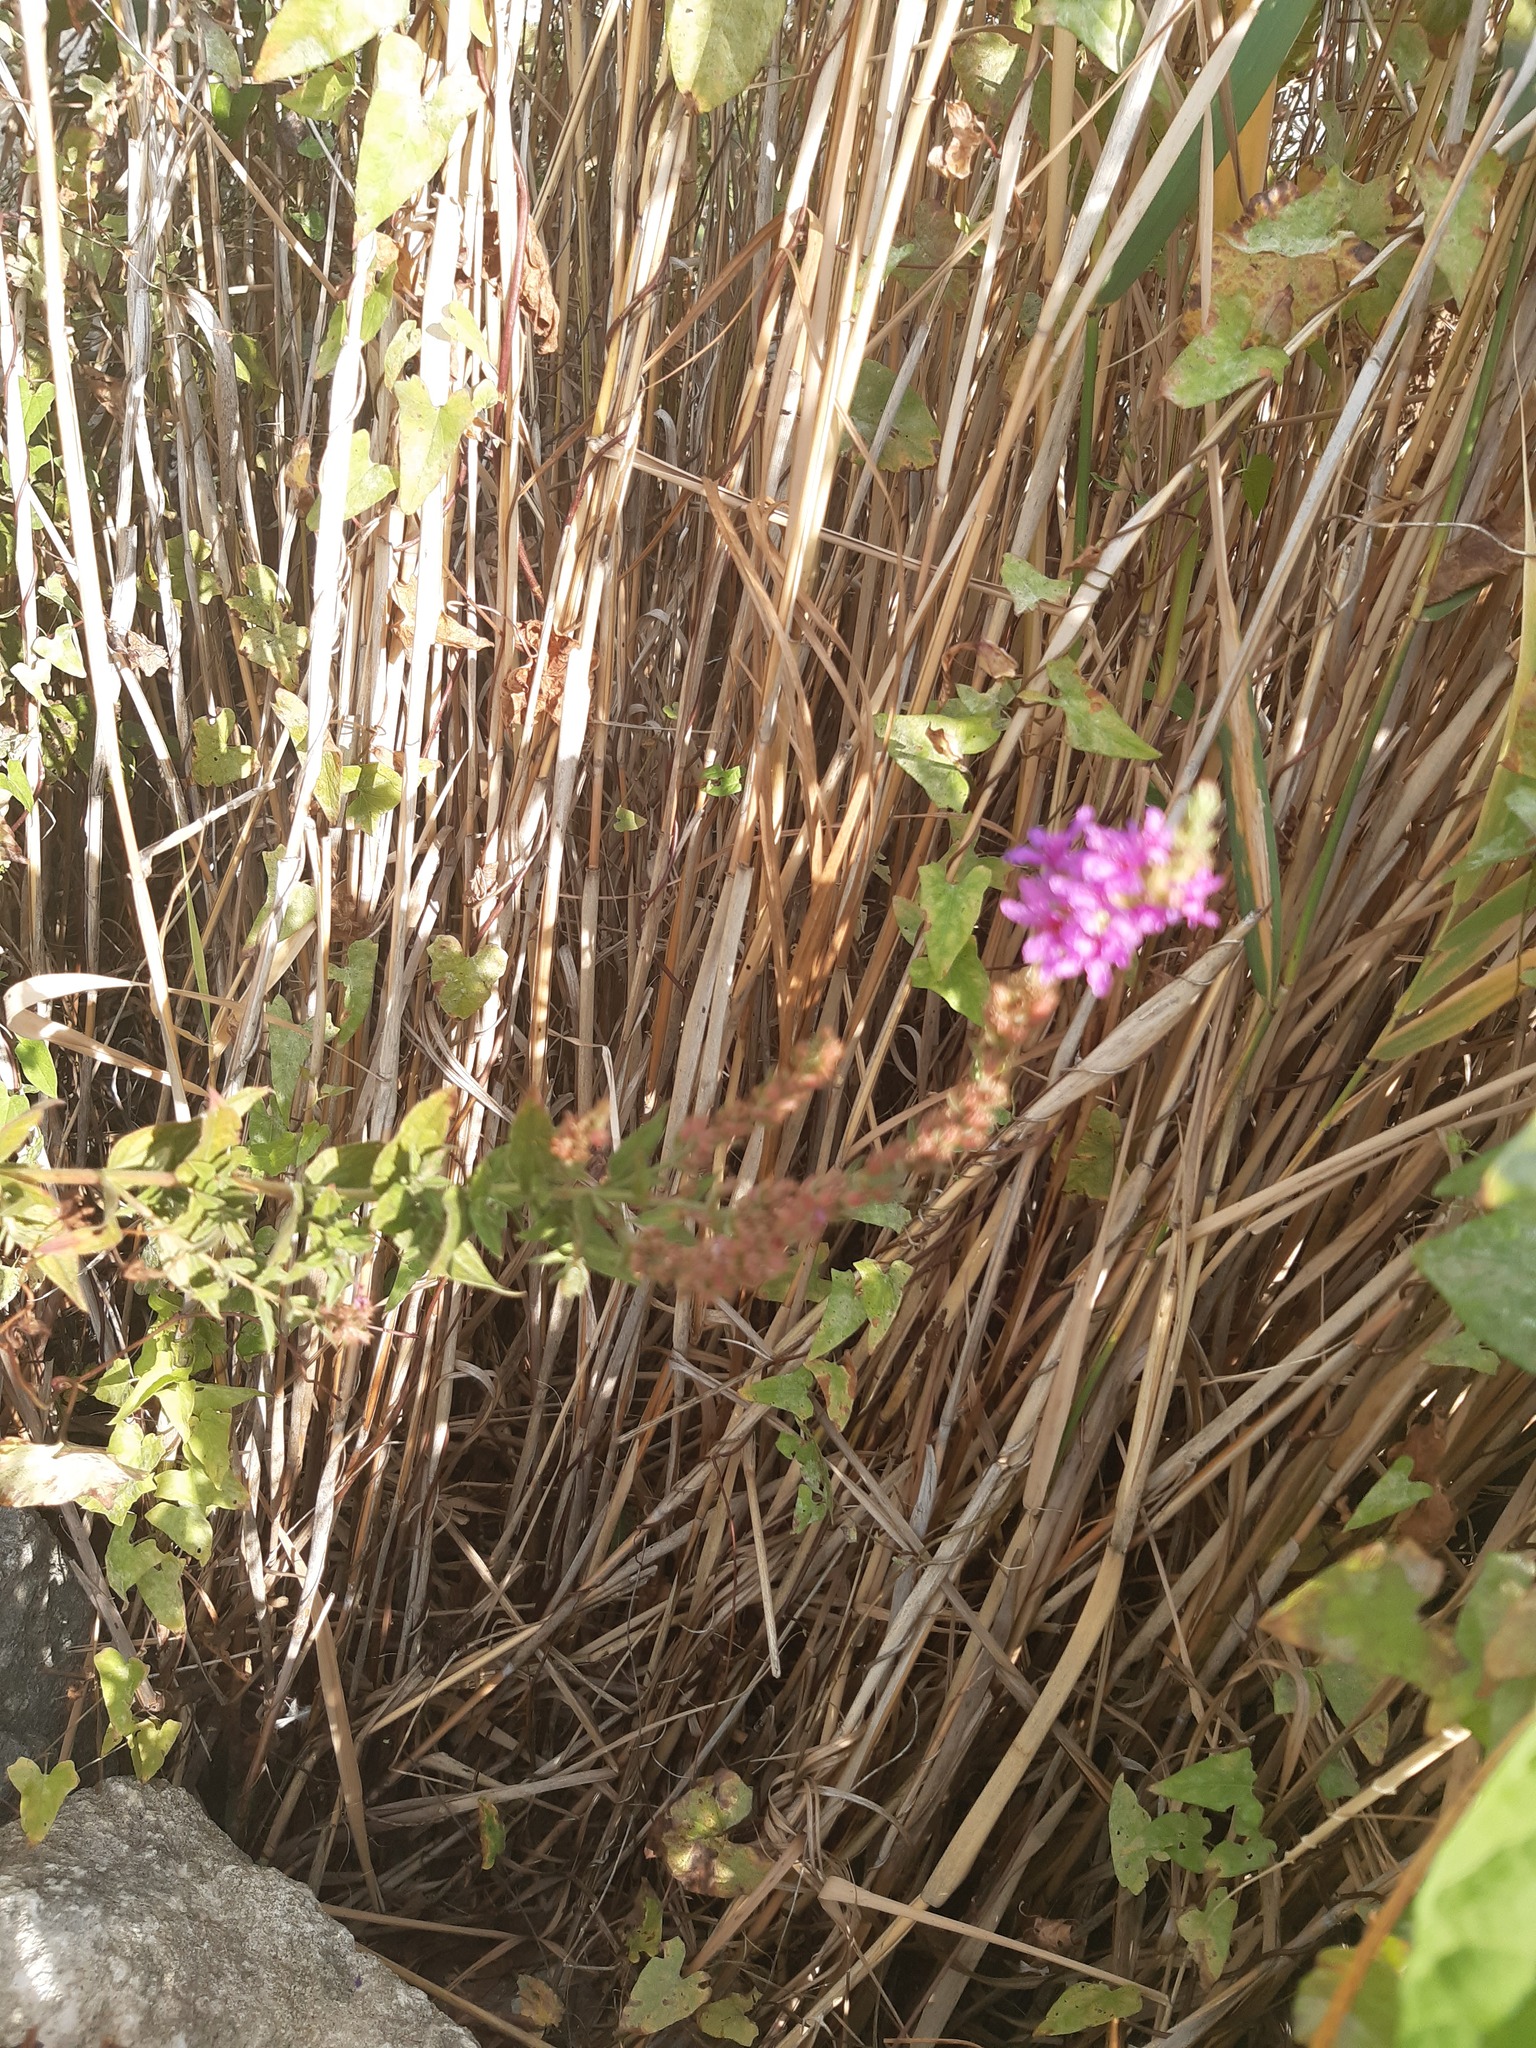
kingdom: Plantae
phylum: Tracheophyta
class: Magnoliopsida
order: Myrtales
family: Lythraceae
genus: Lythrum
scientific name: Lythrum salicaria
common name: Purple loosestrife
